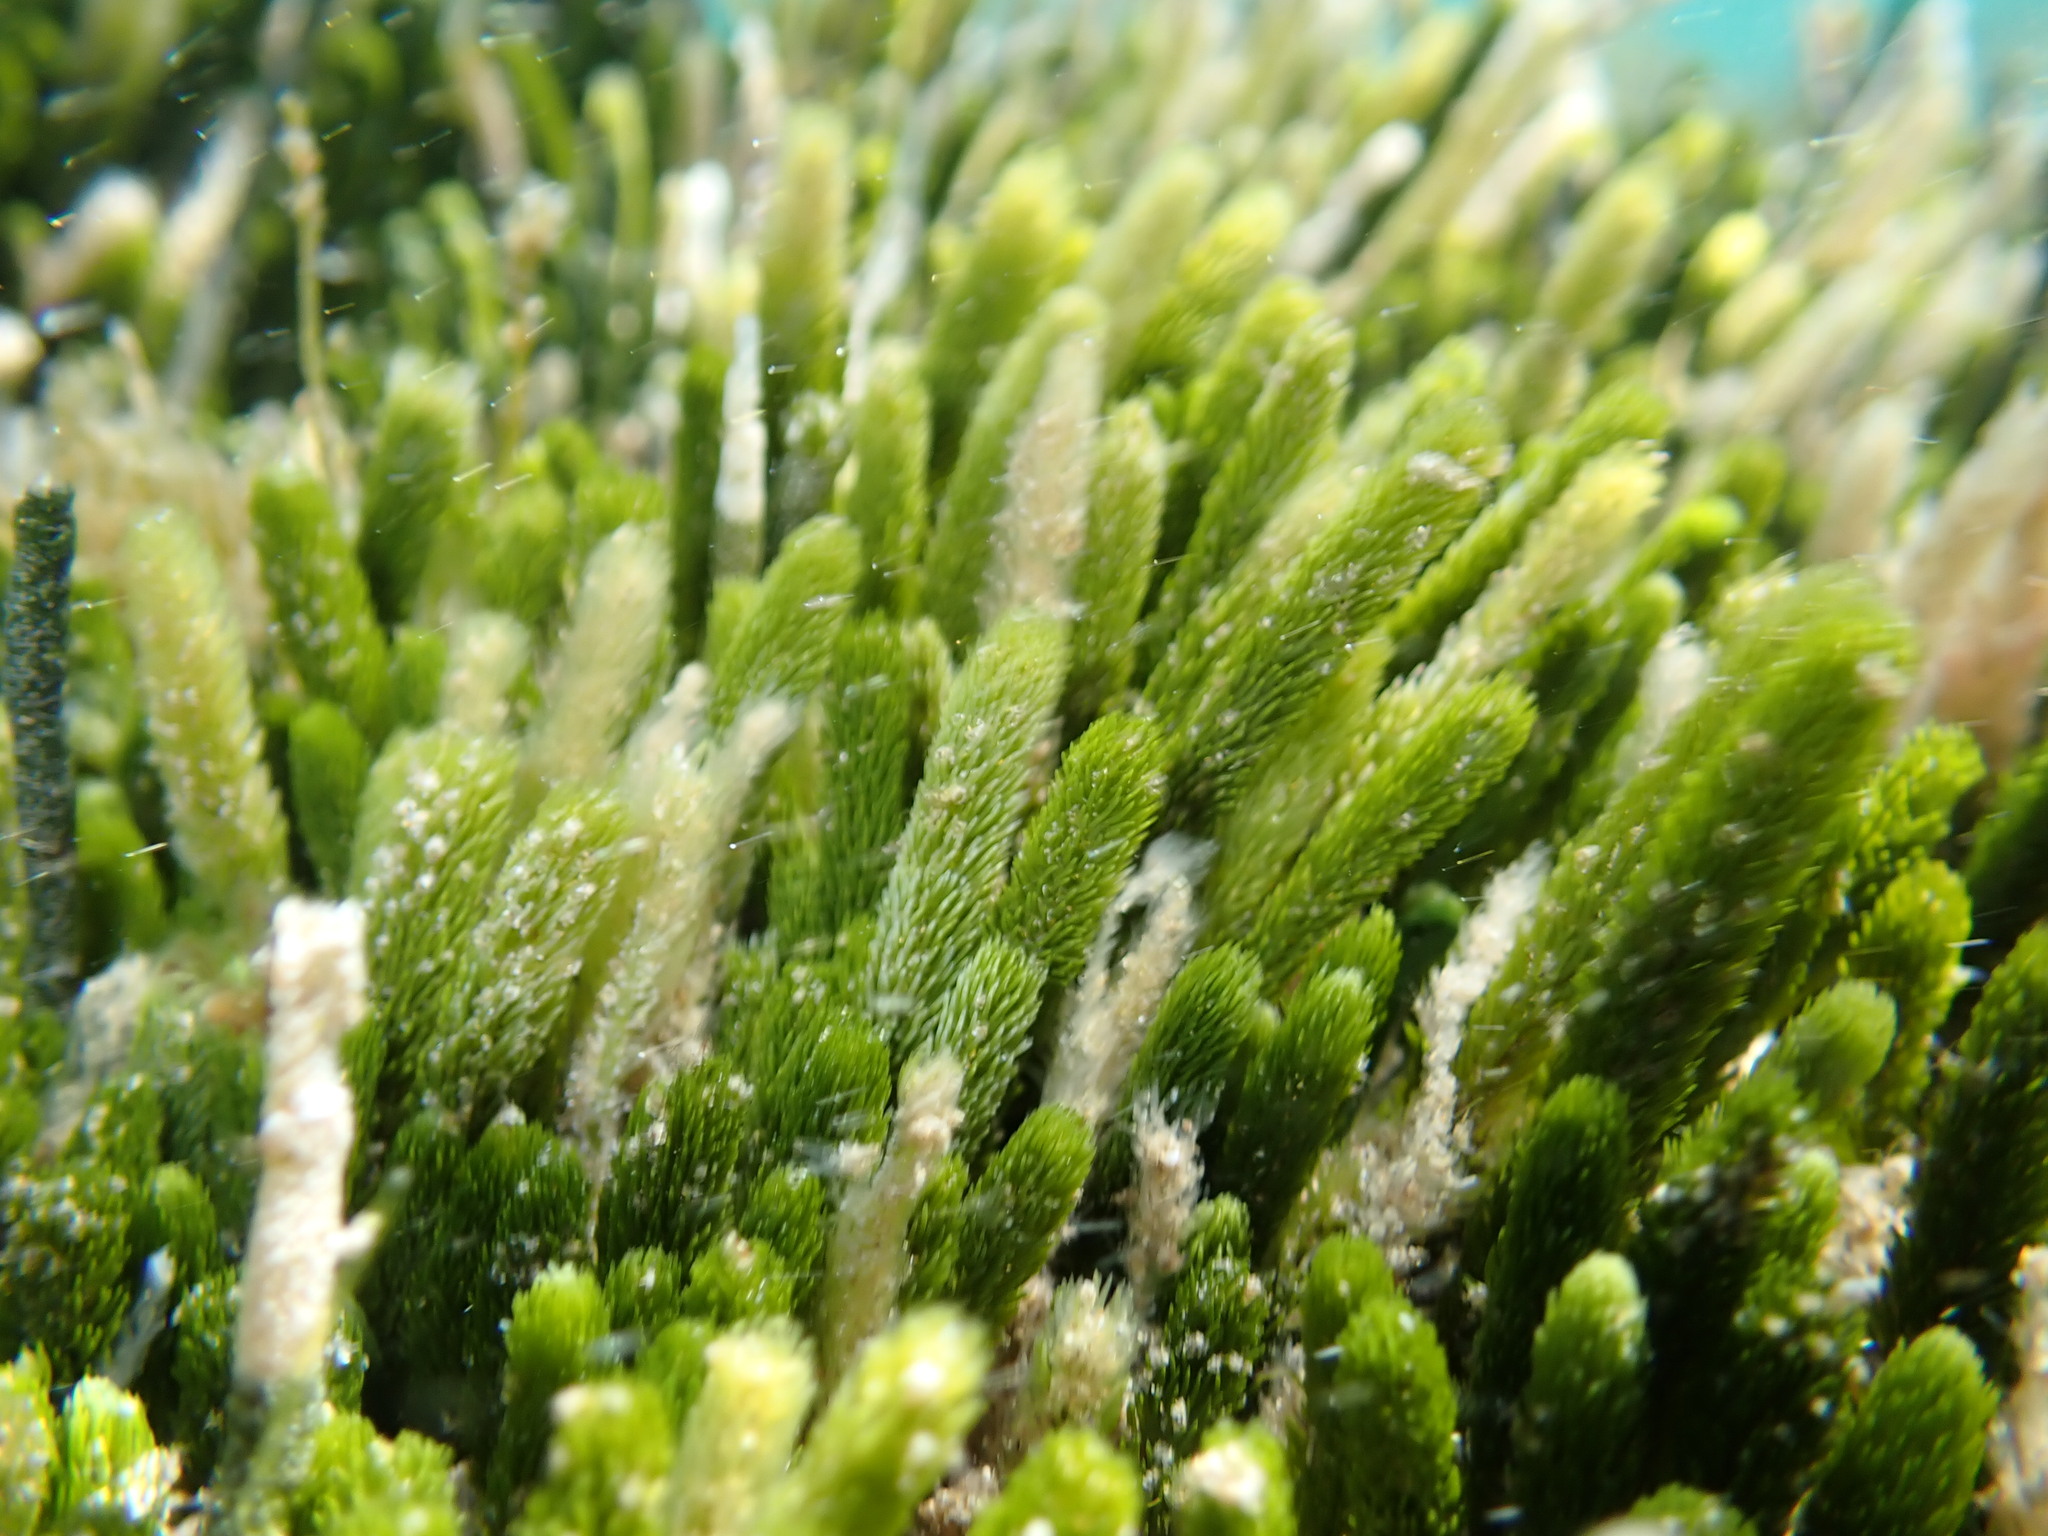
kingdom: Plantae
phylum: Chlorophyta
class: Ulvophyceae
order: Bryopsidales
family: Caulerpaceae
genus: Caulerpa
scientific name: Caulerpa brownii
